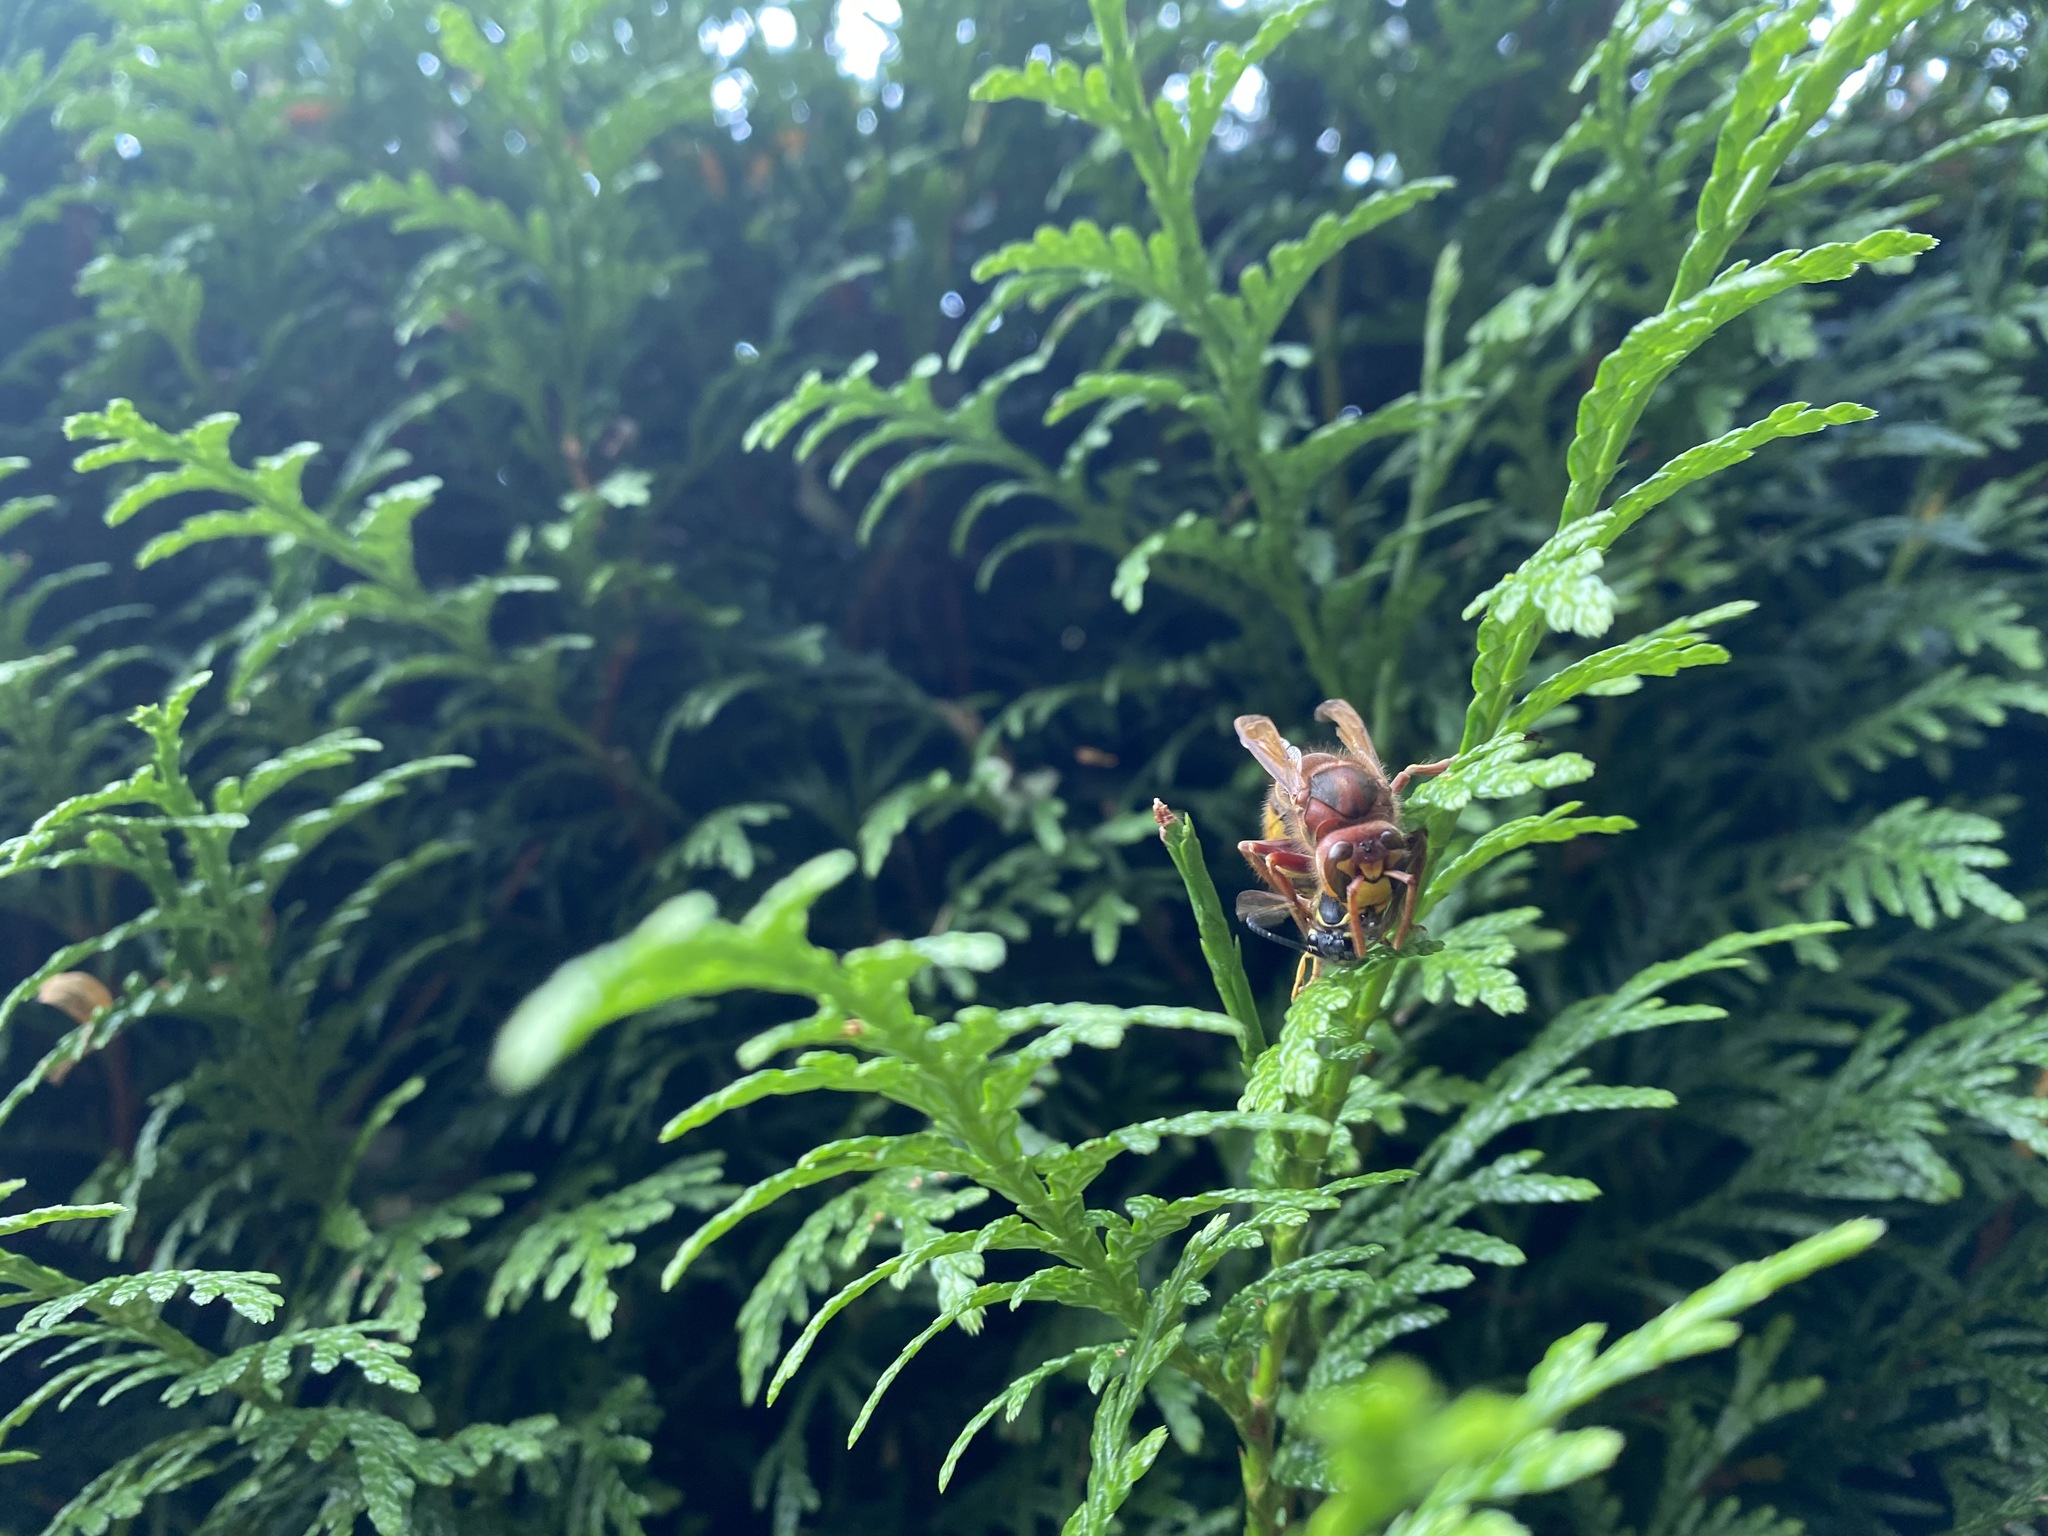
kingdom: Animalia
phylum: Arthropoda
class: Insecta
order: Hymenoptera
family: Vespidae
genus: Vespa
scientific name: Vespa crabro
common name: Hornet
